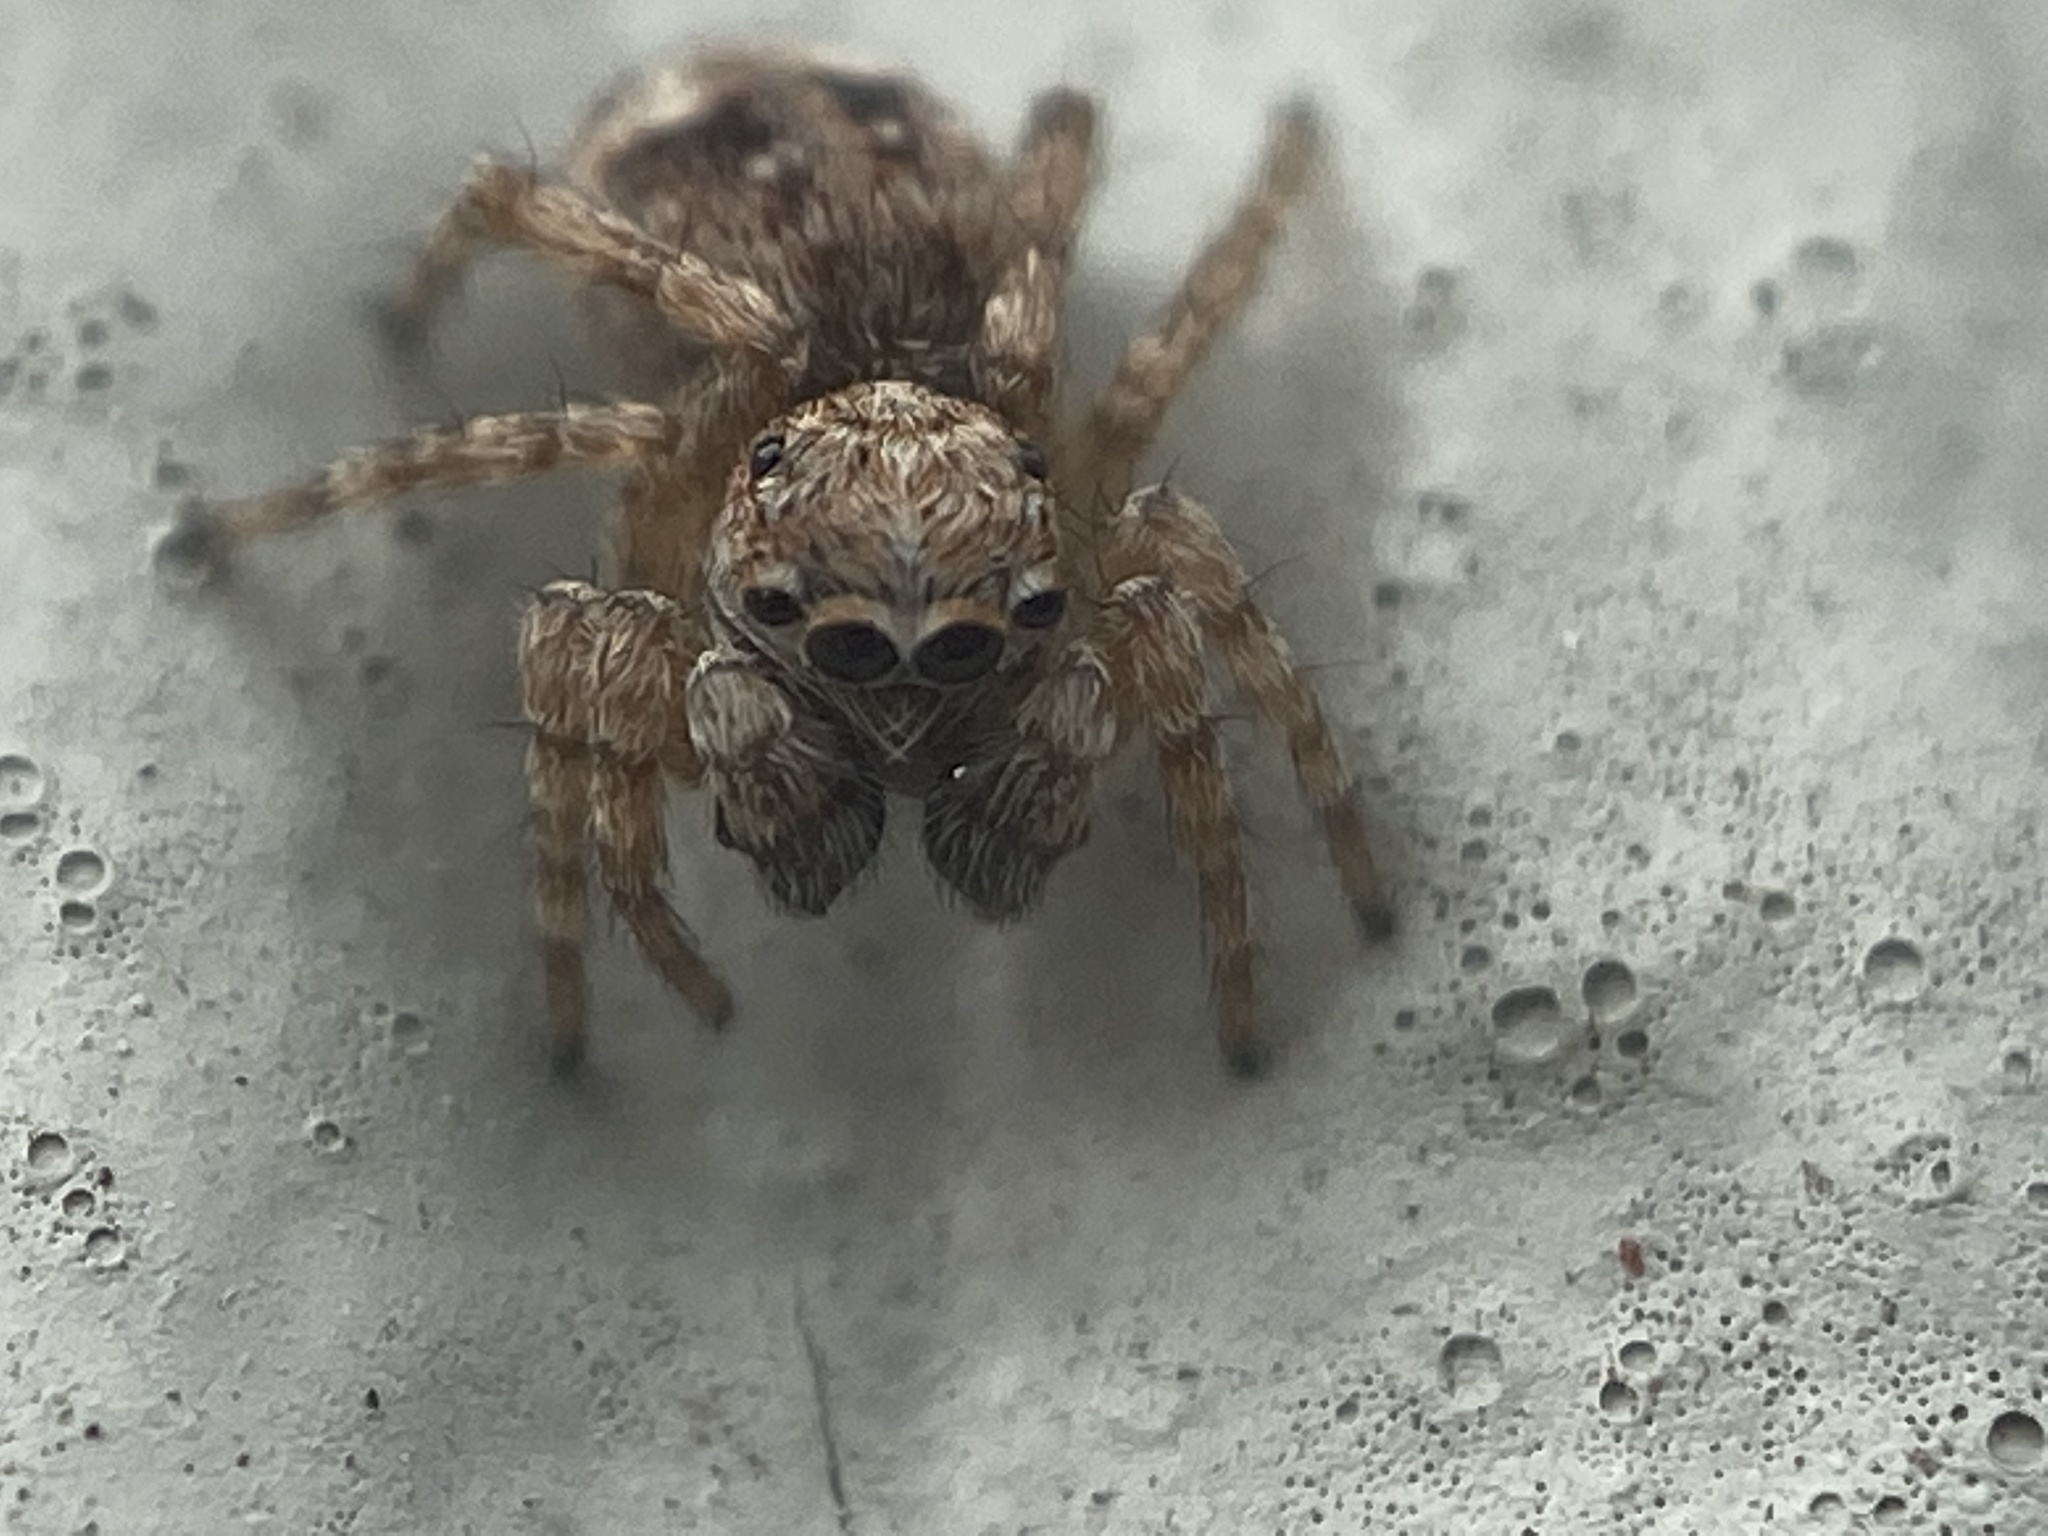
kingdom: Animalia
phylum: Arthropoda
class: Arachnida
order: Araneae
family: Salticidae
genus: Attulus
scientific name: Attulus fasciger
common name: Asiatic wall jumping spider
